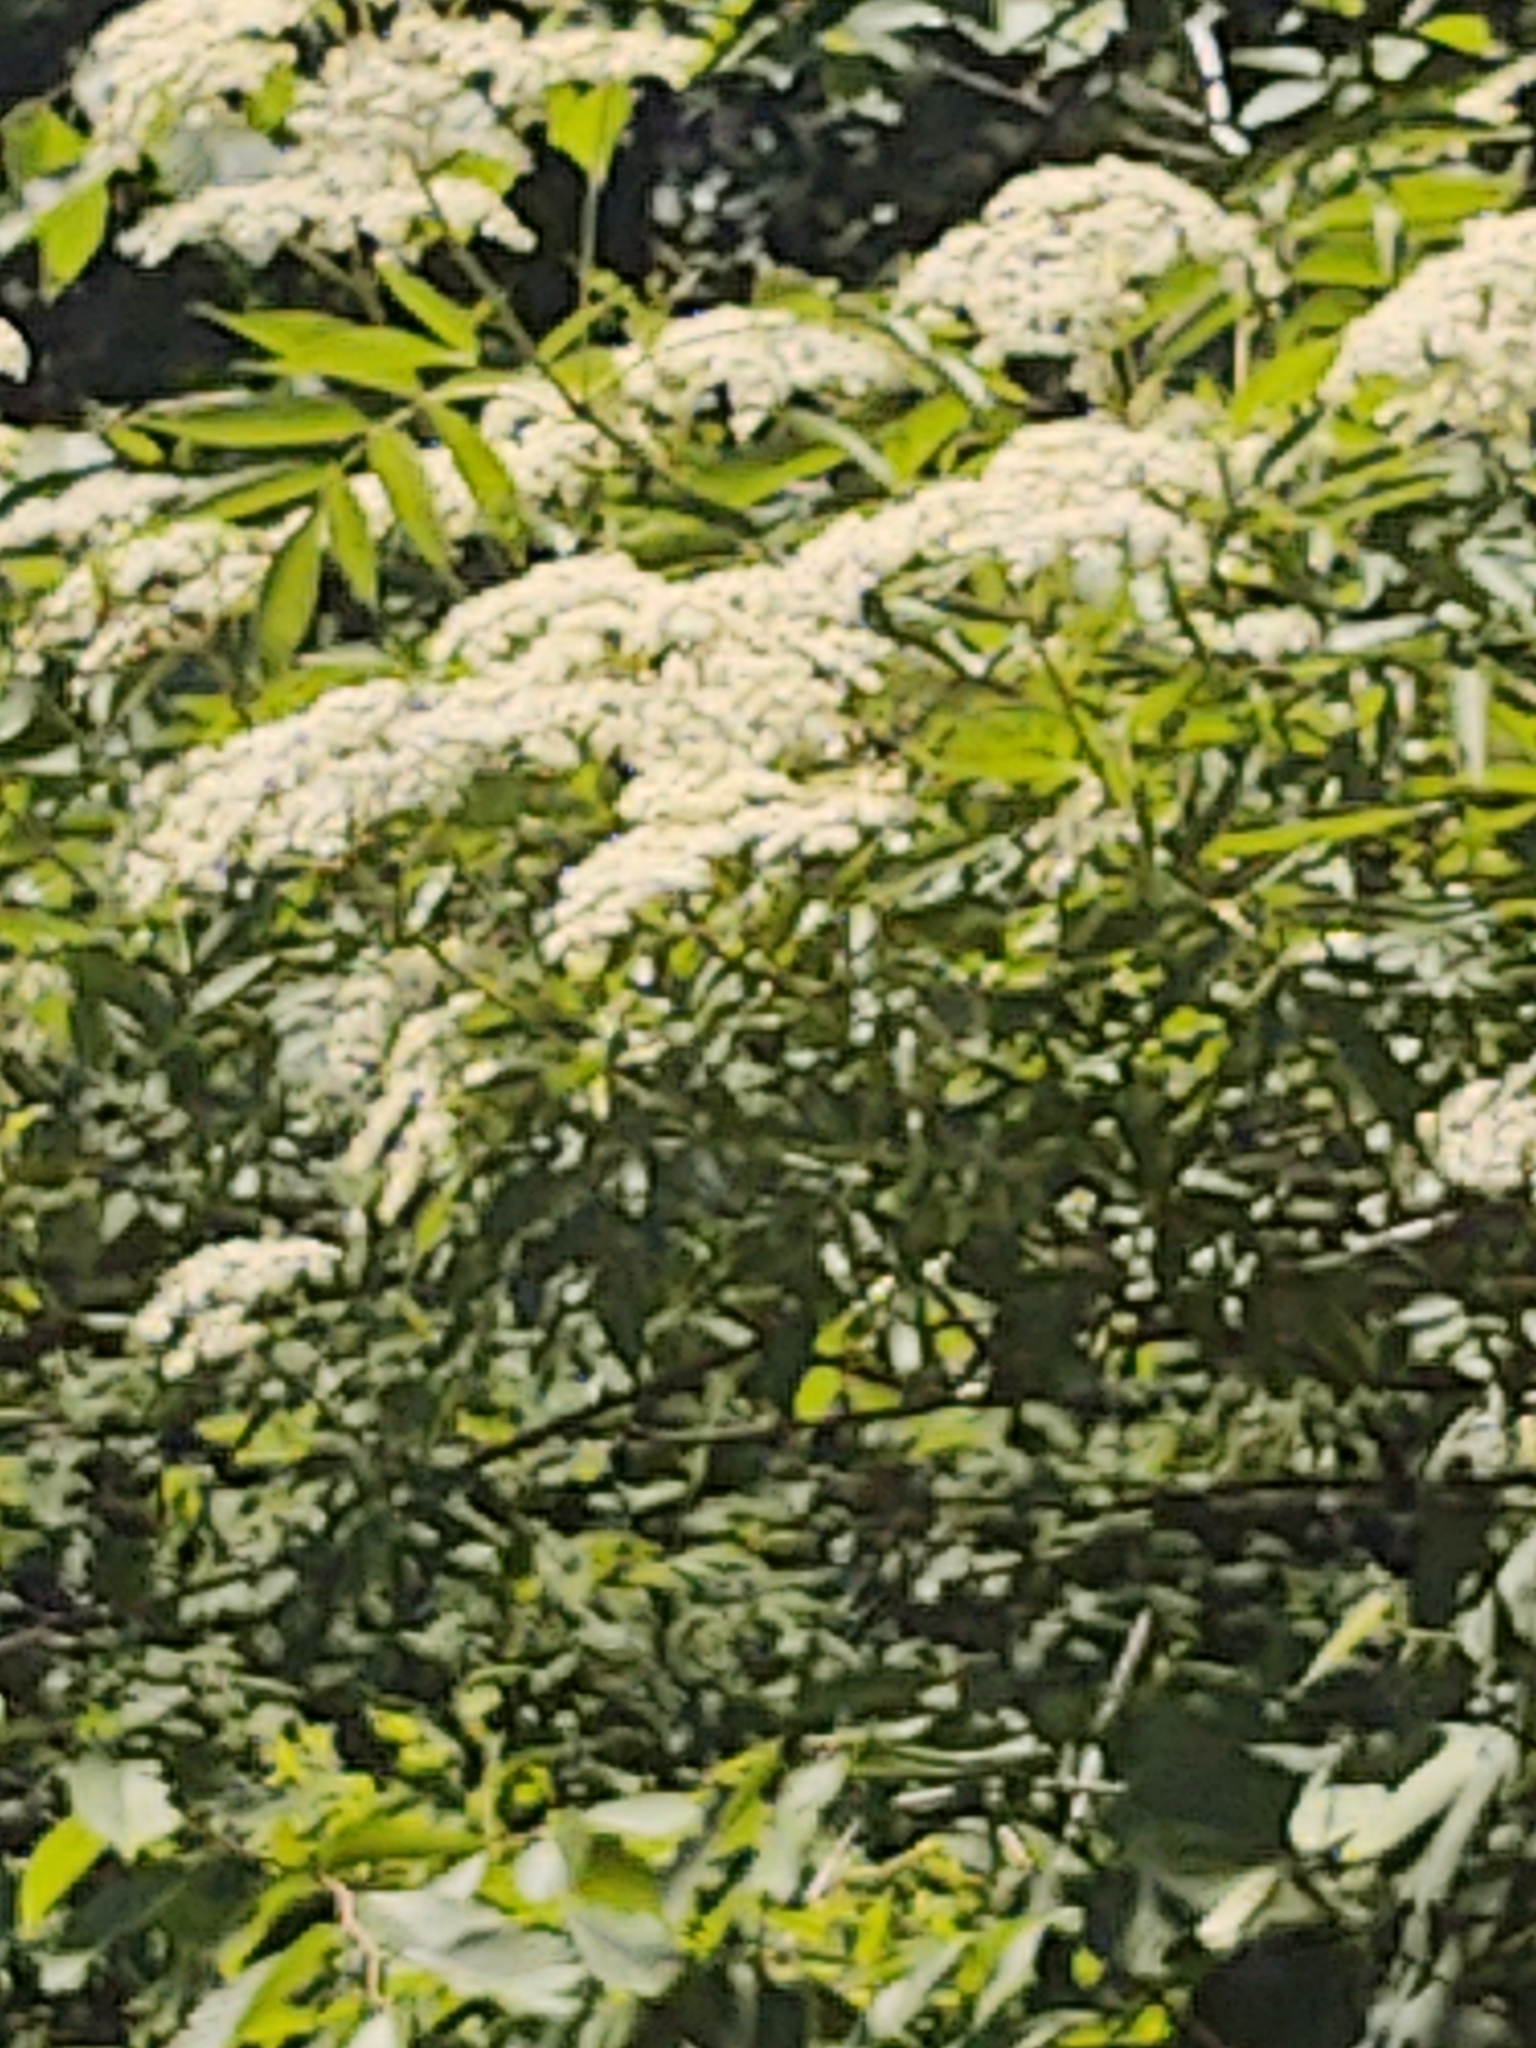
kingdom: Plantae
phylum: Tracheophyta
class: Magnoliopsida
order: Dipsacales
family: Viburnaceae
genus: Sambucus
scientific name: Sambucus canadensis
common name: American elder
